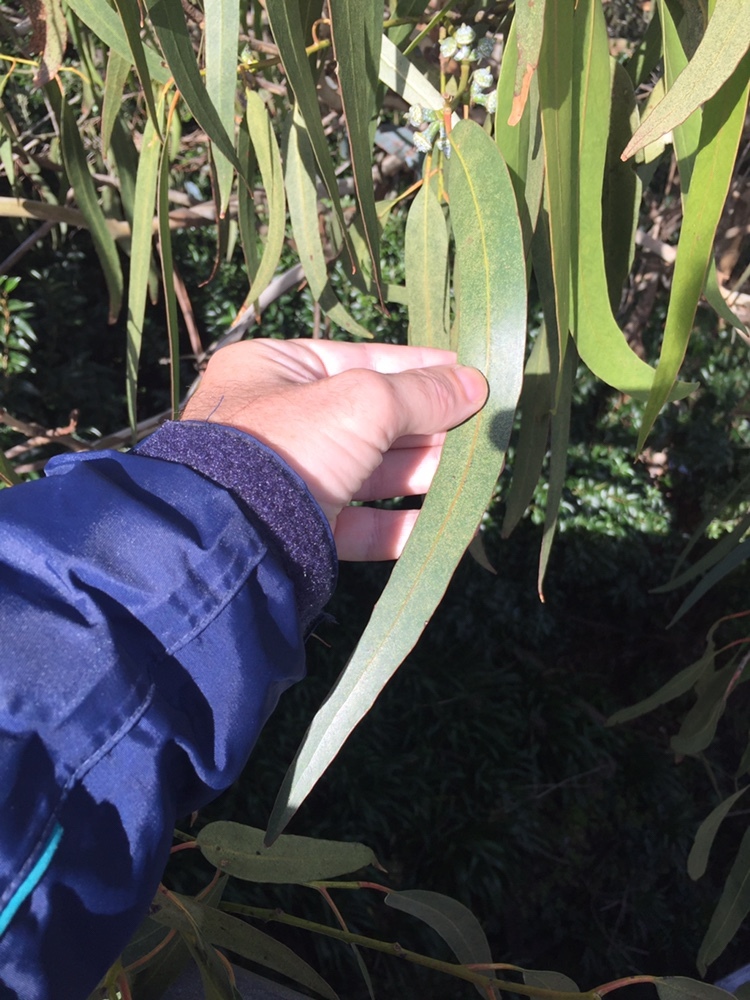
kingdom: Plantae
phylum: Tracheophyta
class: Magnoliopsida
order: Myrtales
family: Myrtaceae
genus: Eucalyptus
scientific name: Eucalyptus globulus
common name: Southern blue-gum
